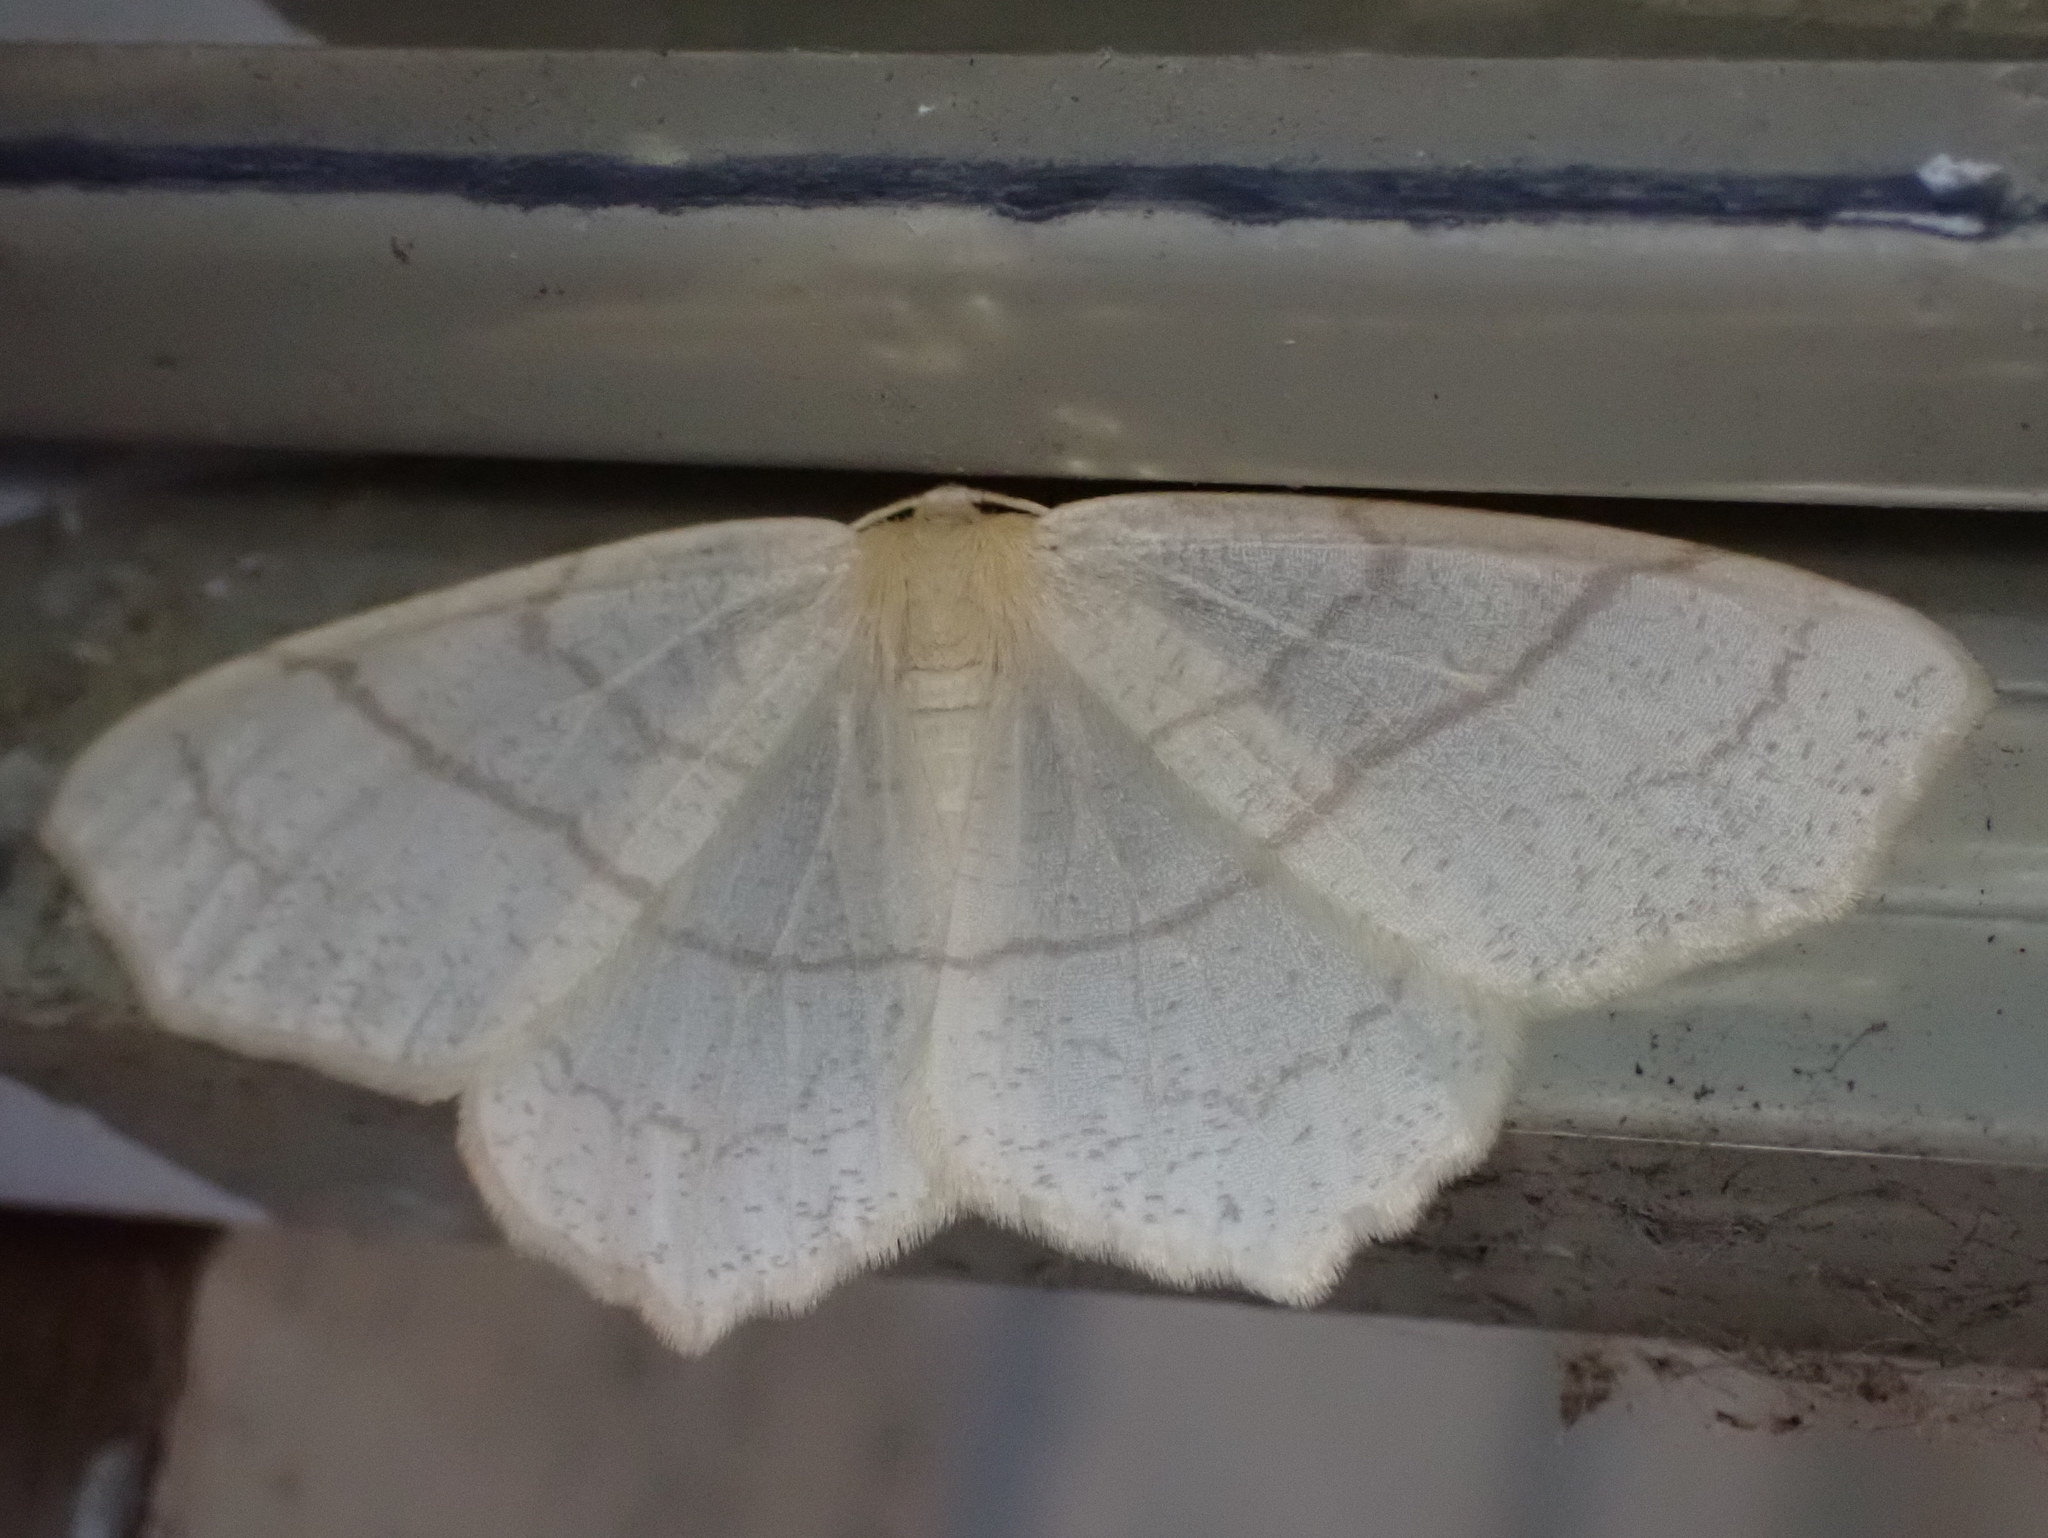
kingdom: Animalia
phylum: Arthropoda
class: Insecta
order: Lepidoptera
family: Geometridae
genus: Besma
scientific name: Besma endropiaria
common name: Straw besma
